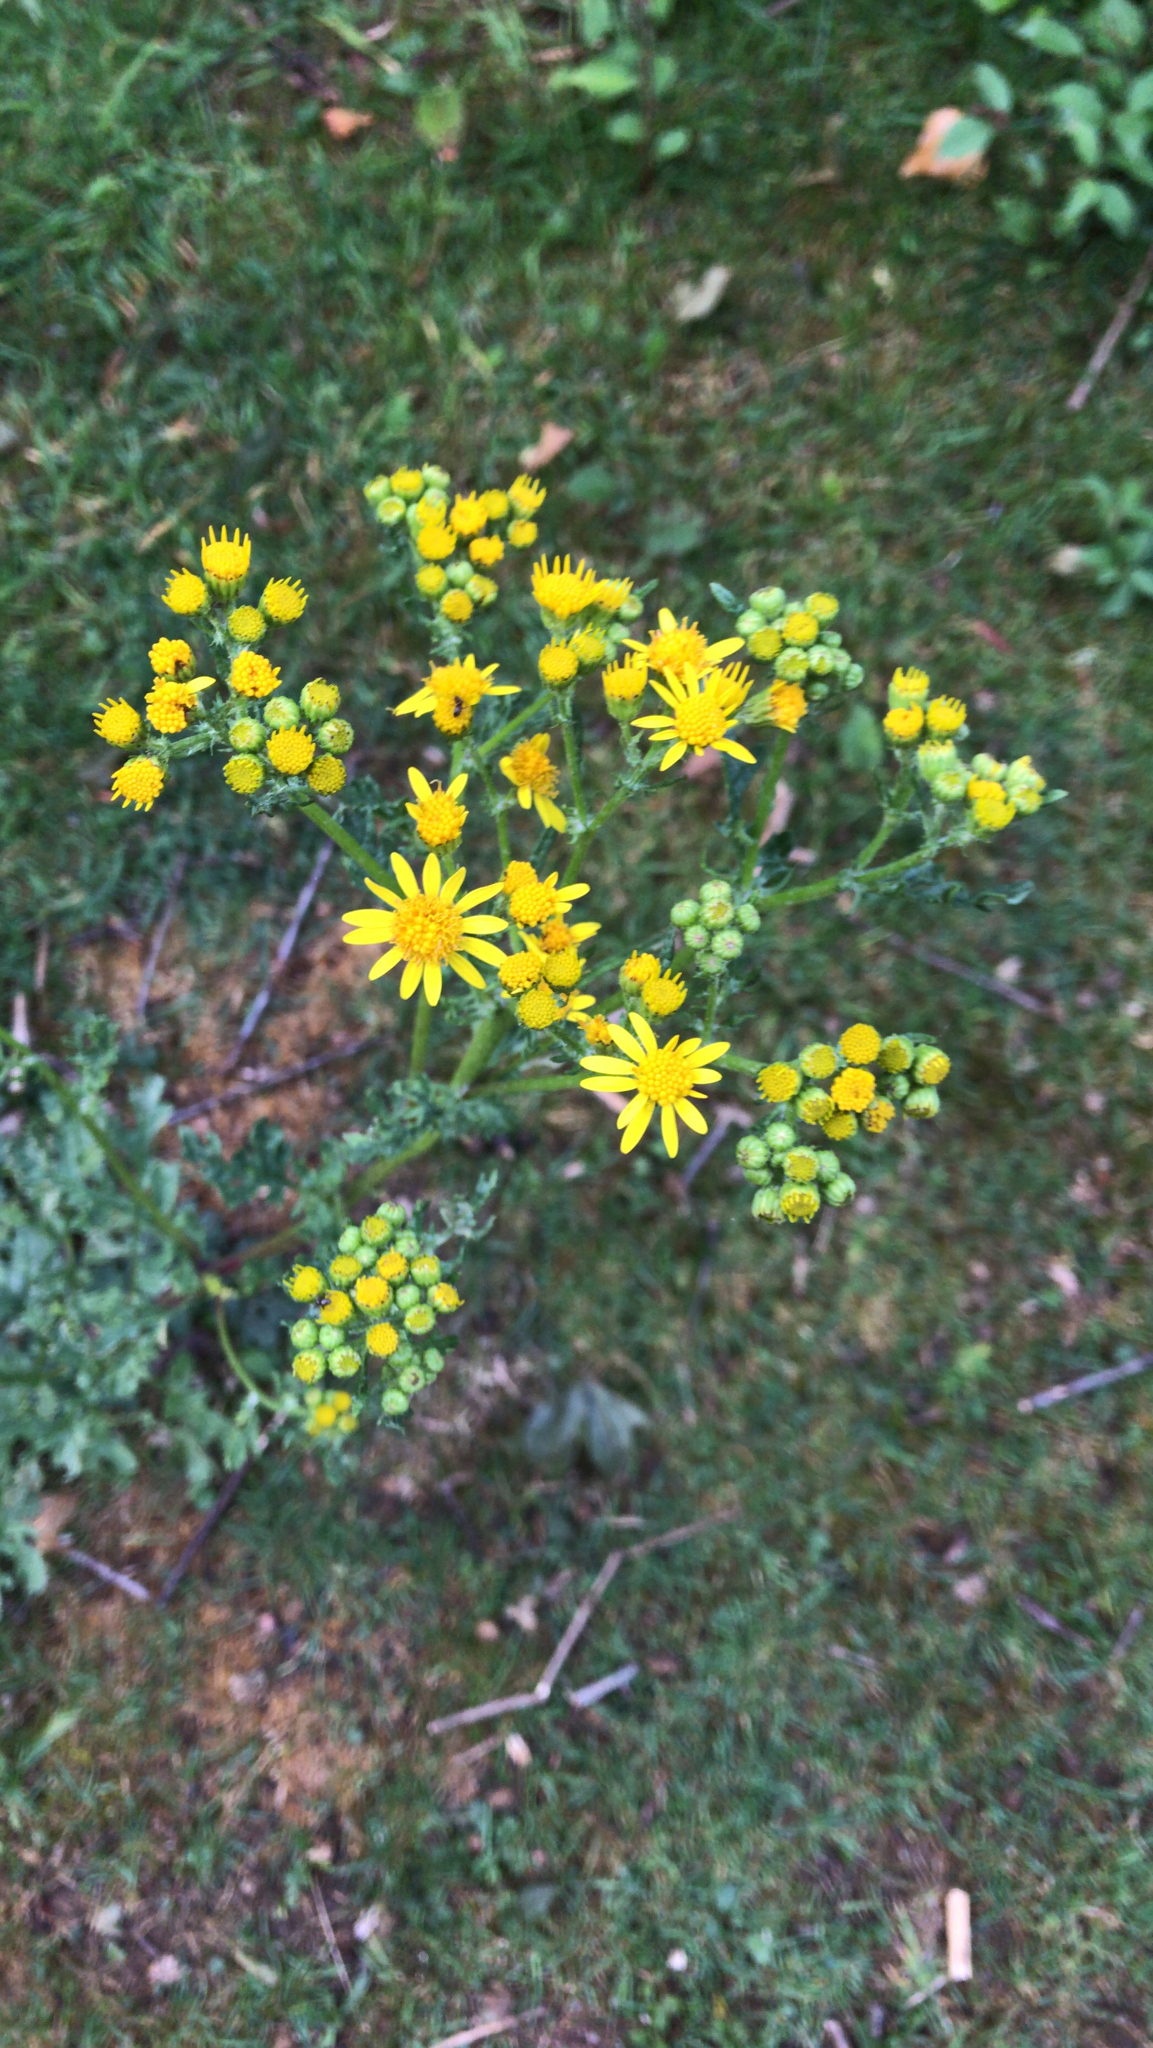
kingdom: Plantae
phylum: Tracheophyta
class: Magnoliopsida
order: Asterales
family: Asteraceae
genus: Jacobaea
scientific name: Jacobaea vulgaris
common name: Stinking willie
